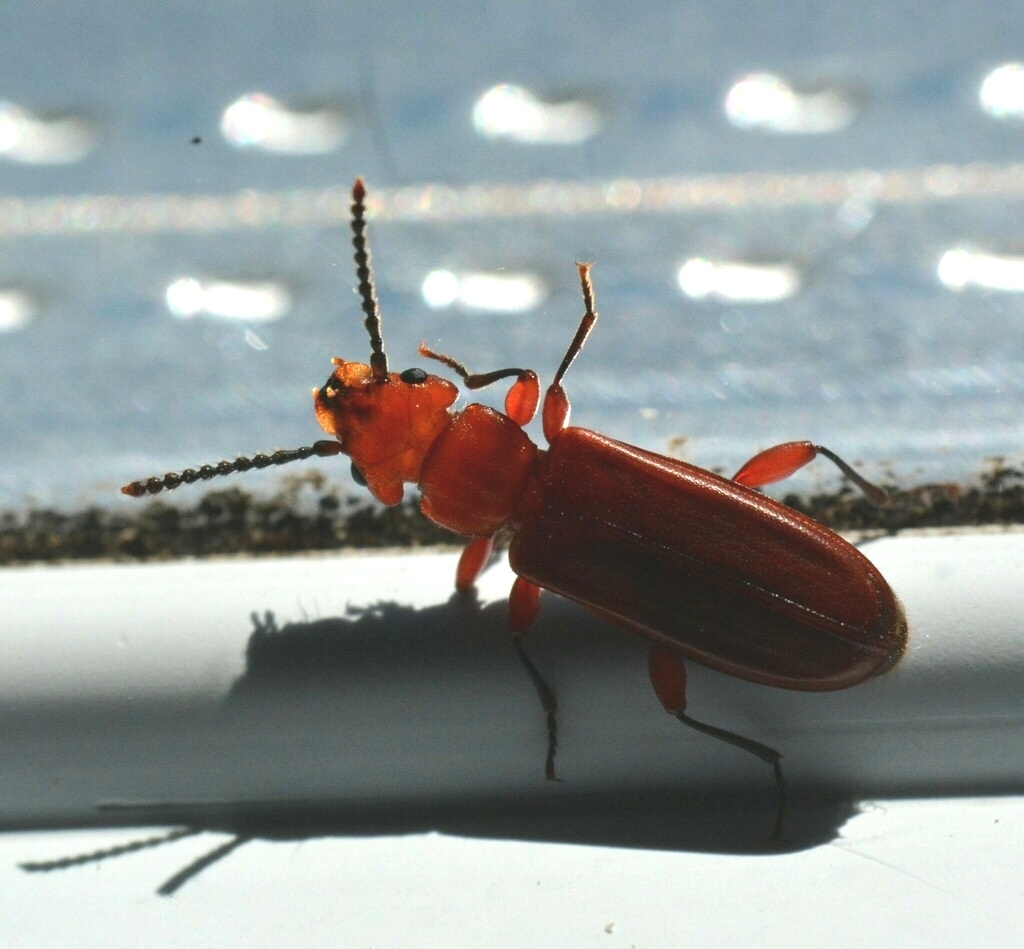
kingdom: Animalia
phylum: Arthropoda
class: Insecta
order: Coleoptera
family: Cucujidae
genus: Cucujus
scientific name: Cucujus clavipes
